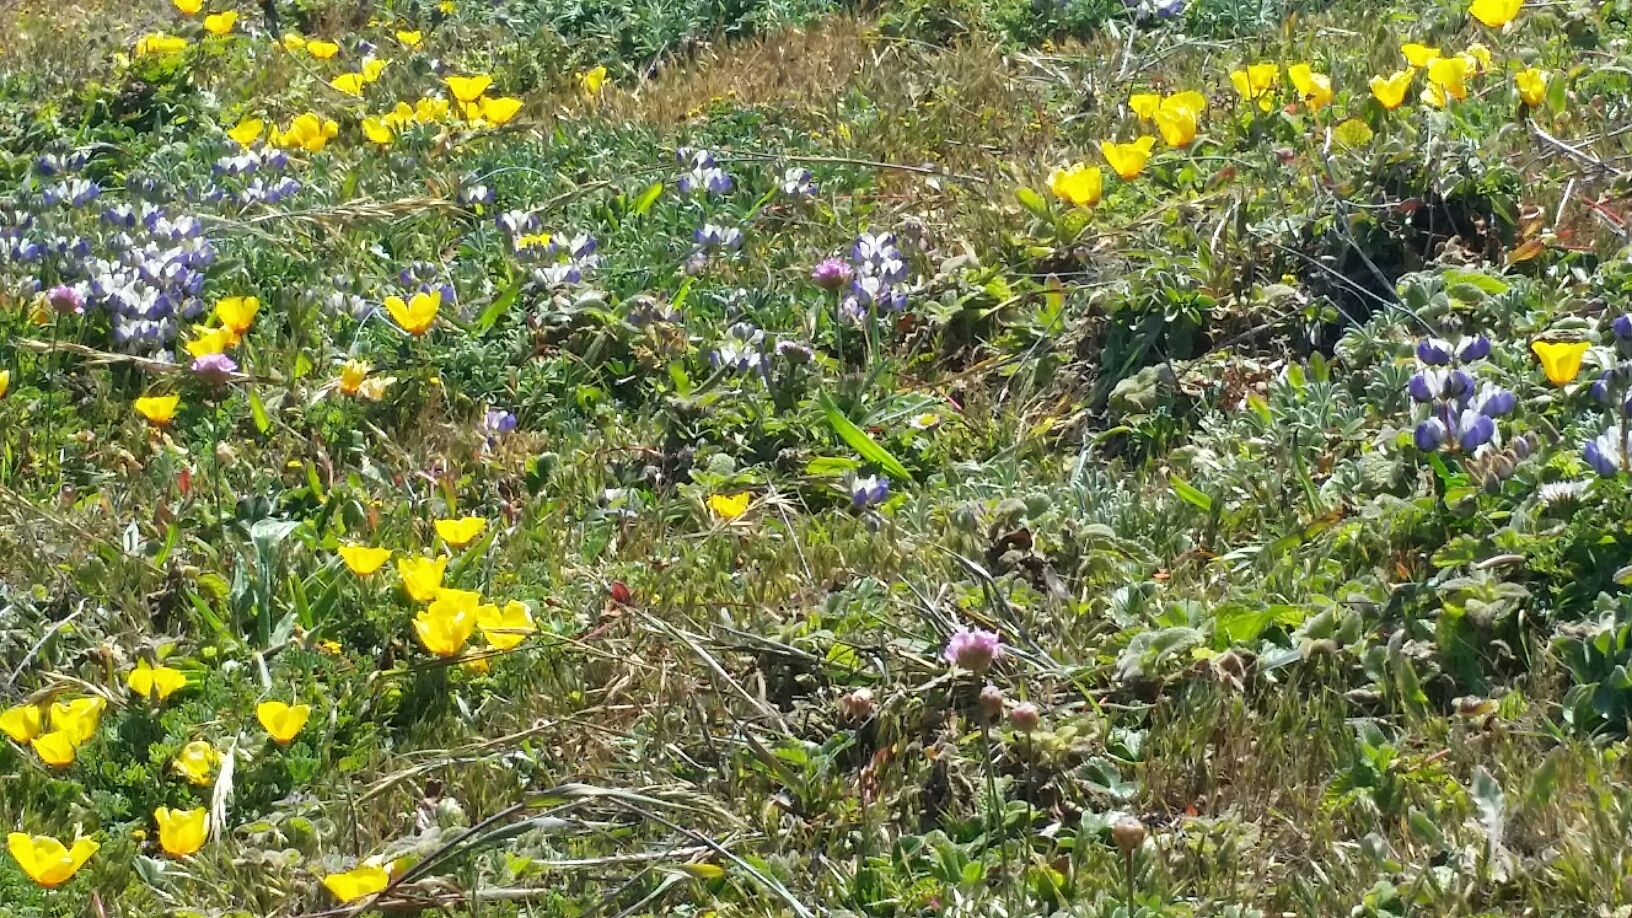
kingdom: Plantae
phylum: Tracheophyta
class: Magnoliopsida
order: Ranunculales
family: Papaveraceae
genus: Eschscholzia
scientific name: Eschscholzia californica
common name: California poppy
